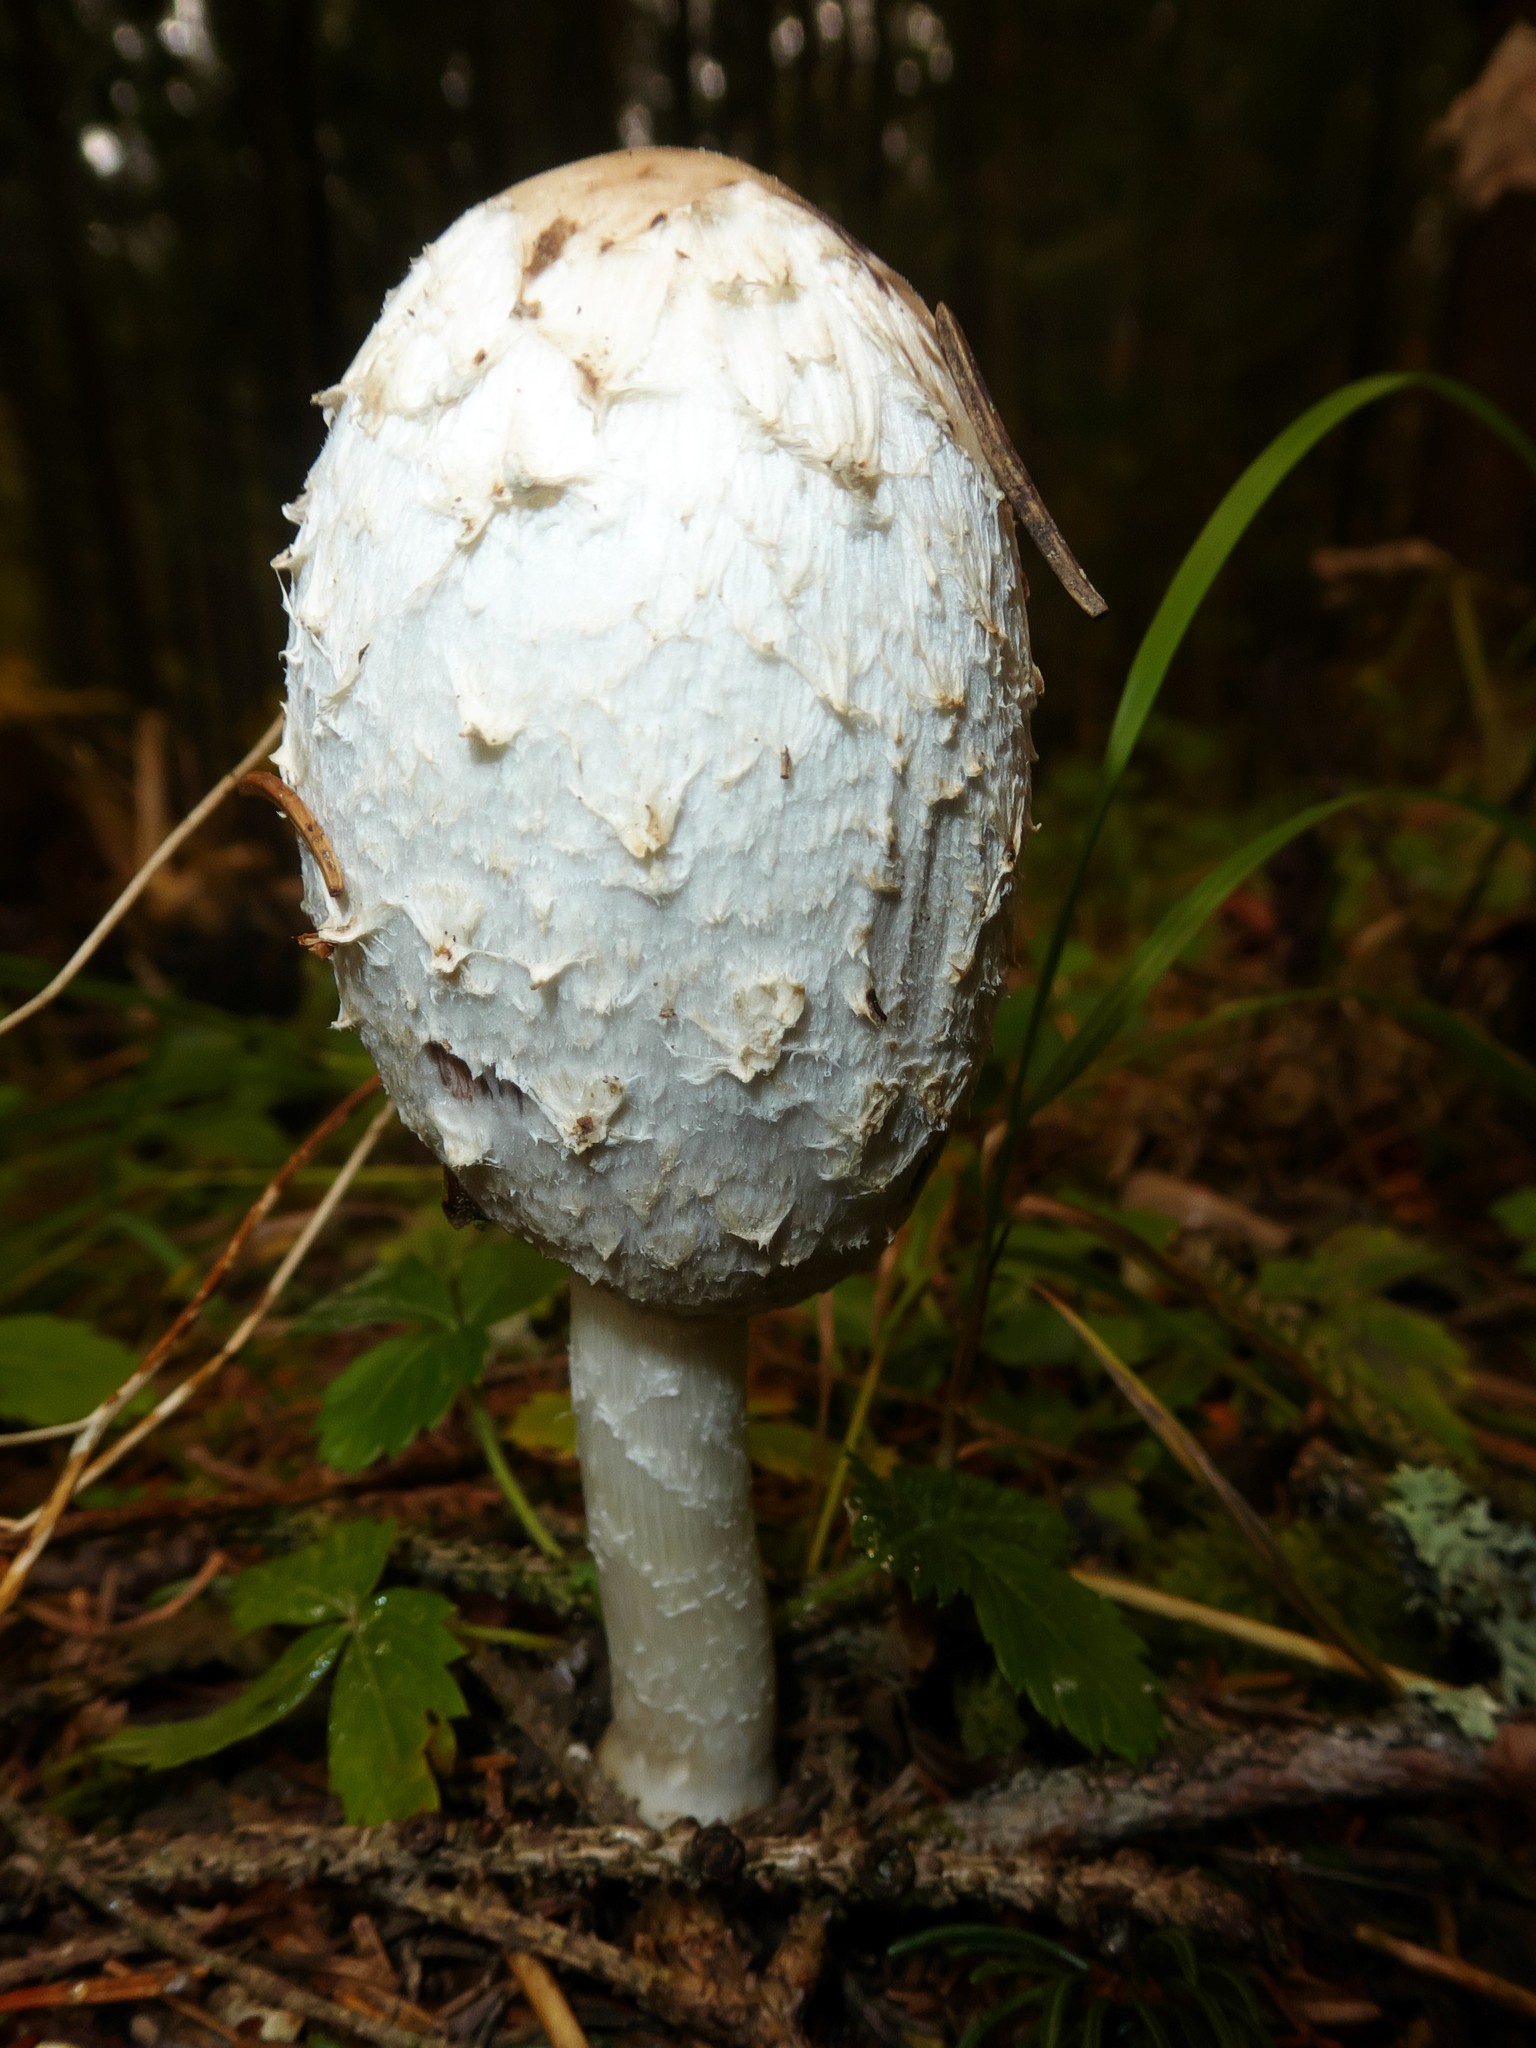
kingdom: Fungi
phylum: Basidiomycota
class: Agaricomycetes
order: Agaricales
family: Agaricaceae
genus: Coprinus
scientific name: Coprinus comatus
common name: Lawyer's wig
